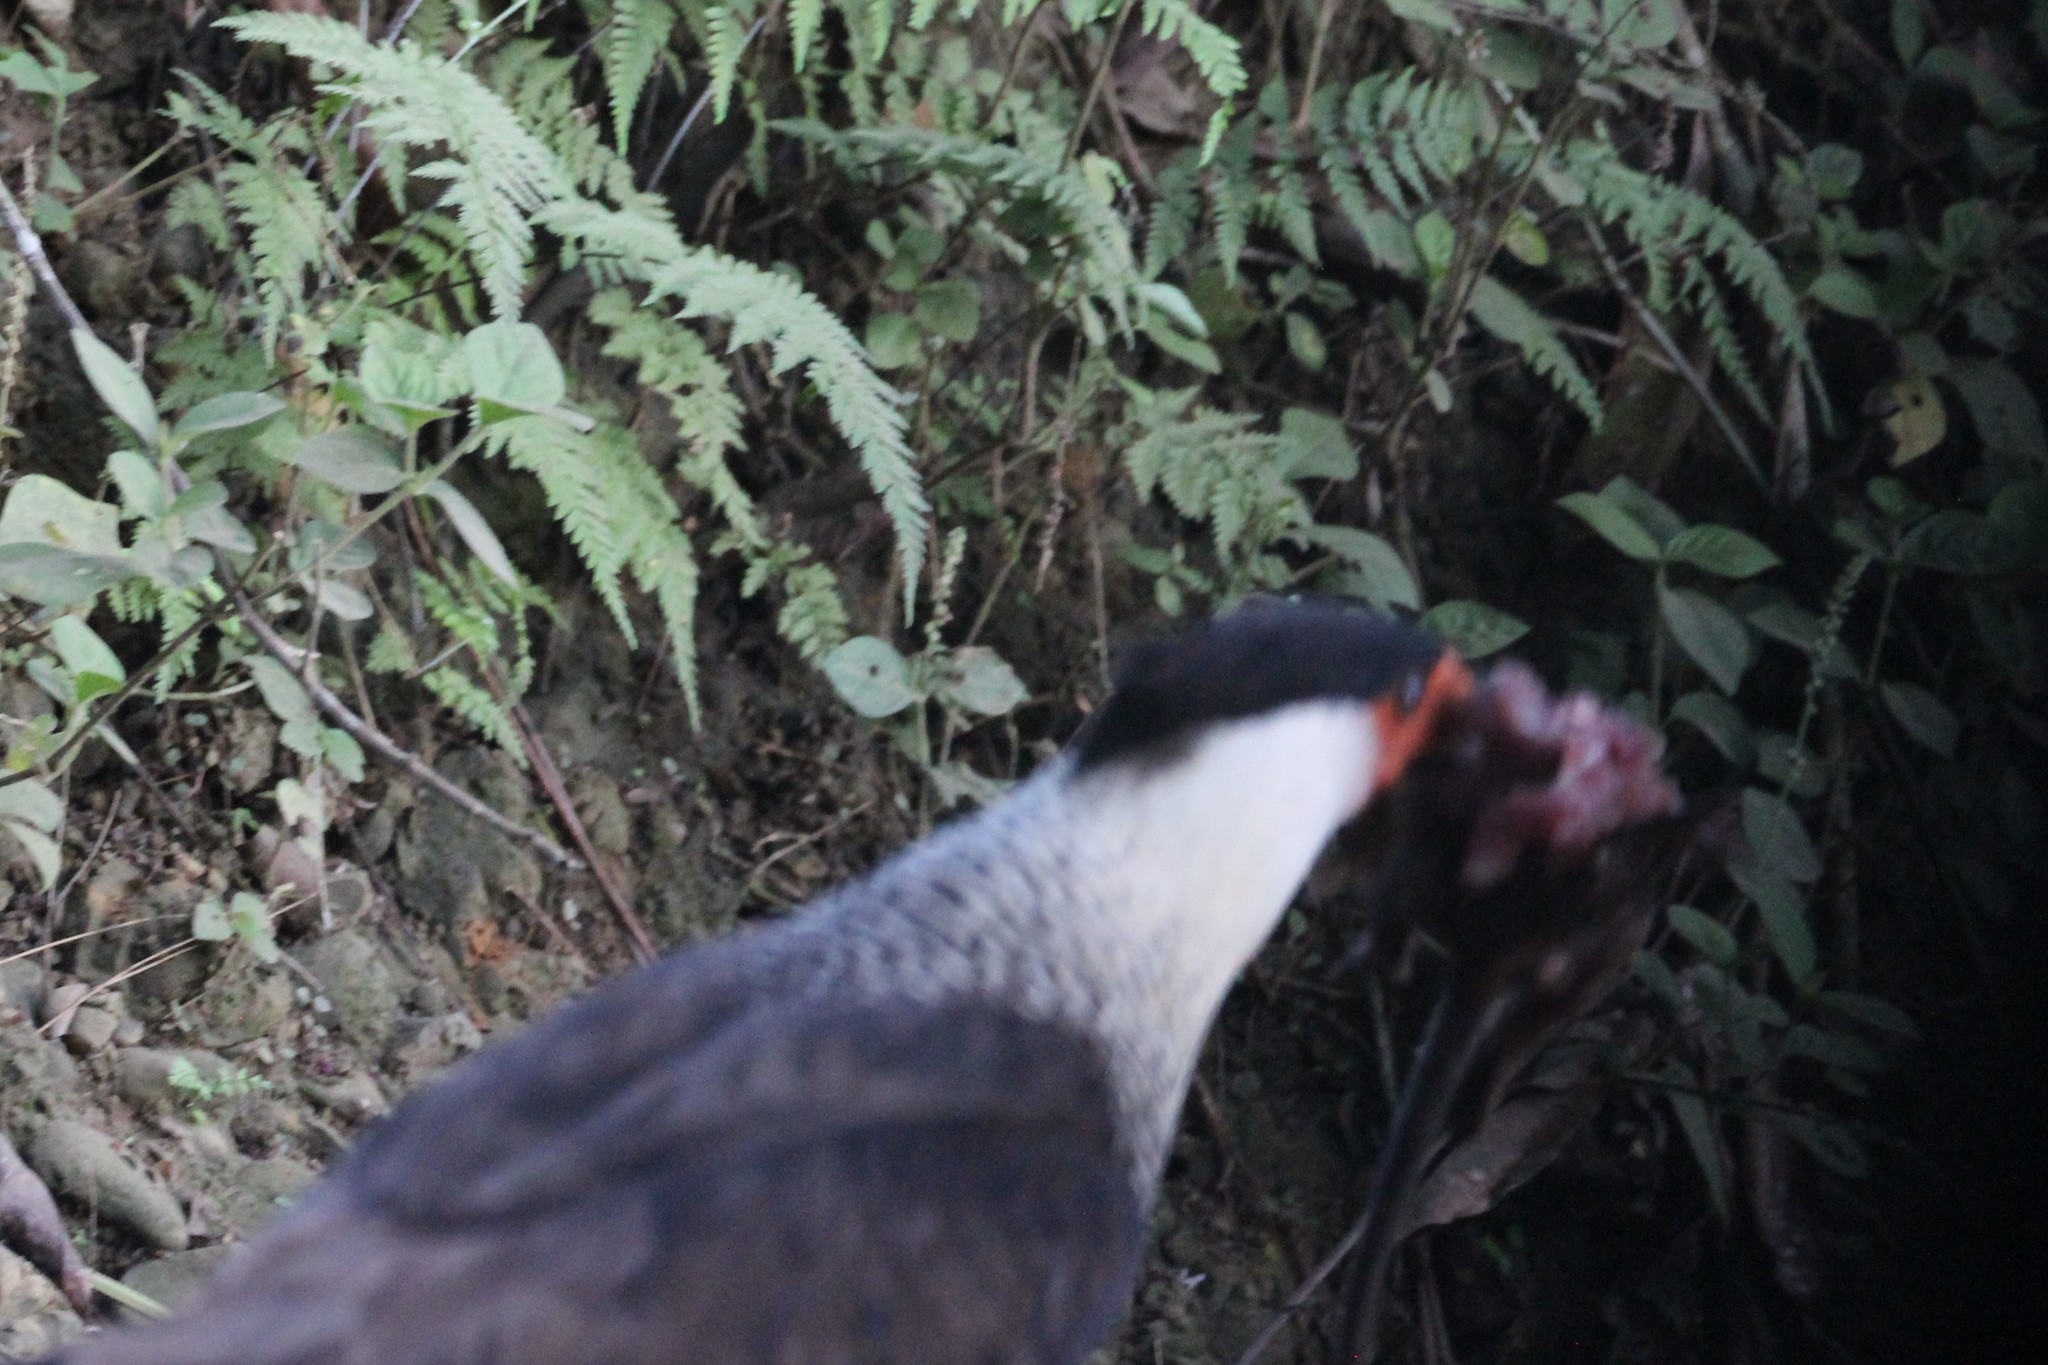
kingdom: Animalia
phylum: Chordata
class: Aves
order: Falconiformes
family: Falconidae
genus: Caracara
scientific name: Caracara plancus
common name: Southern caracara
